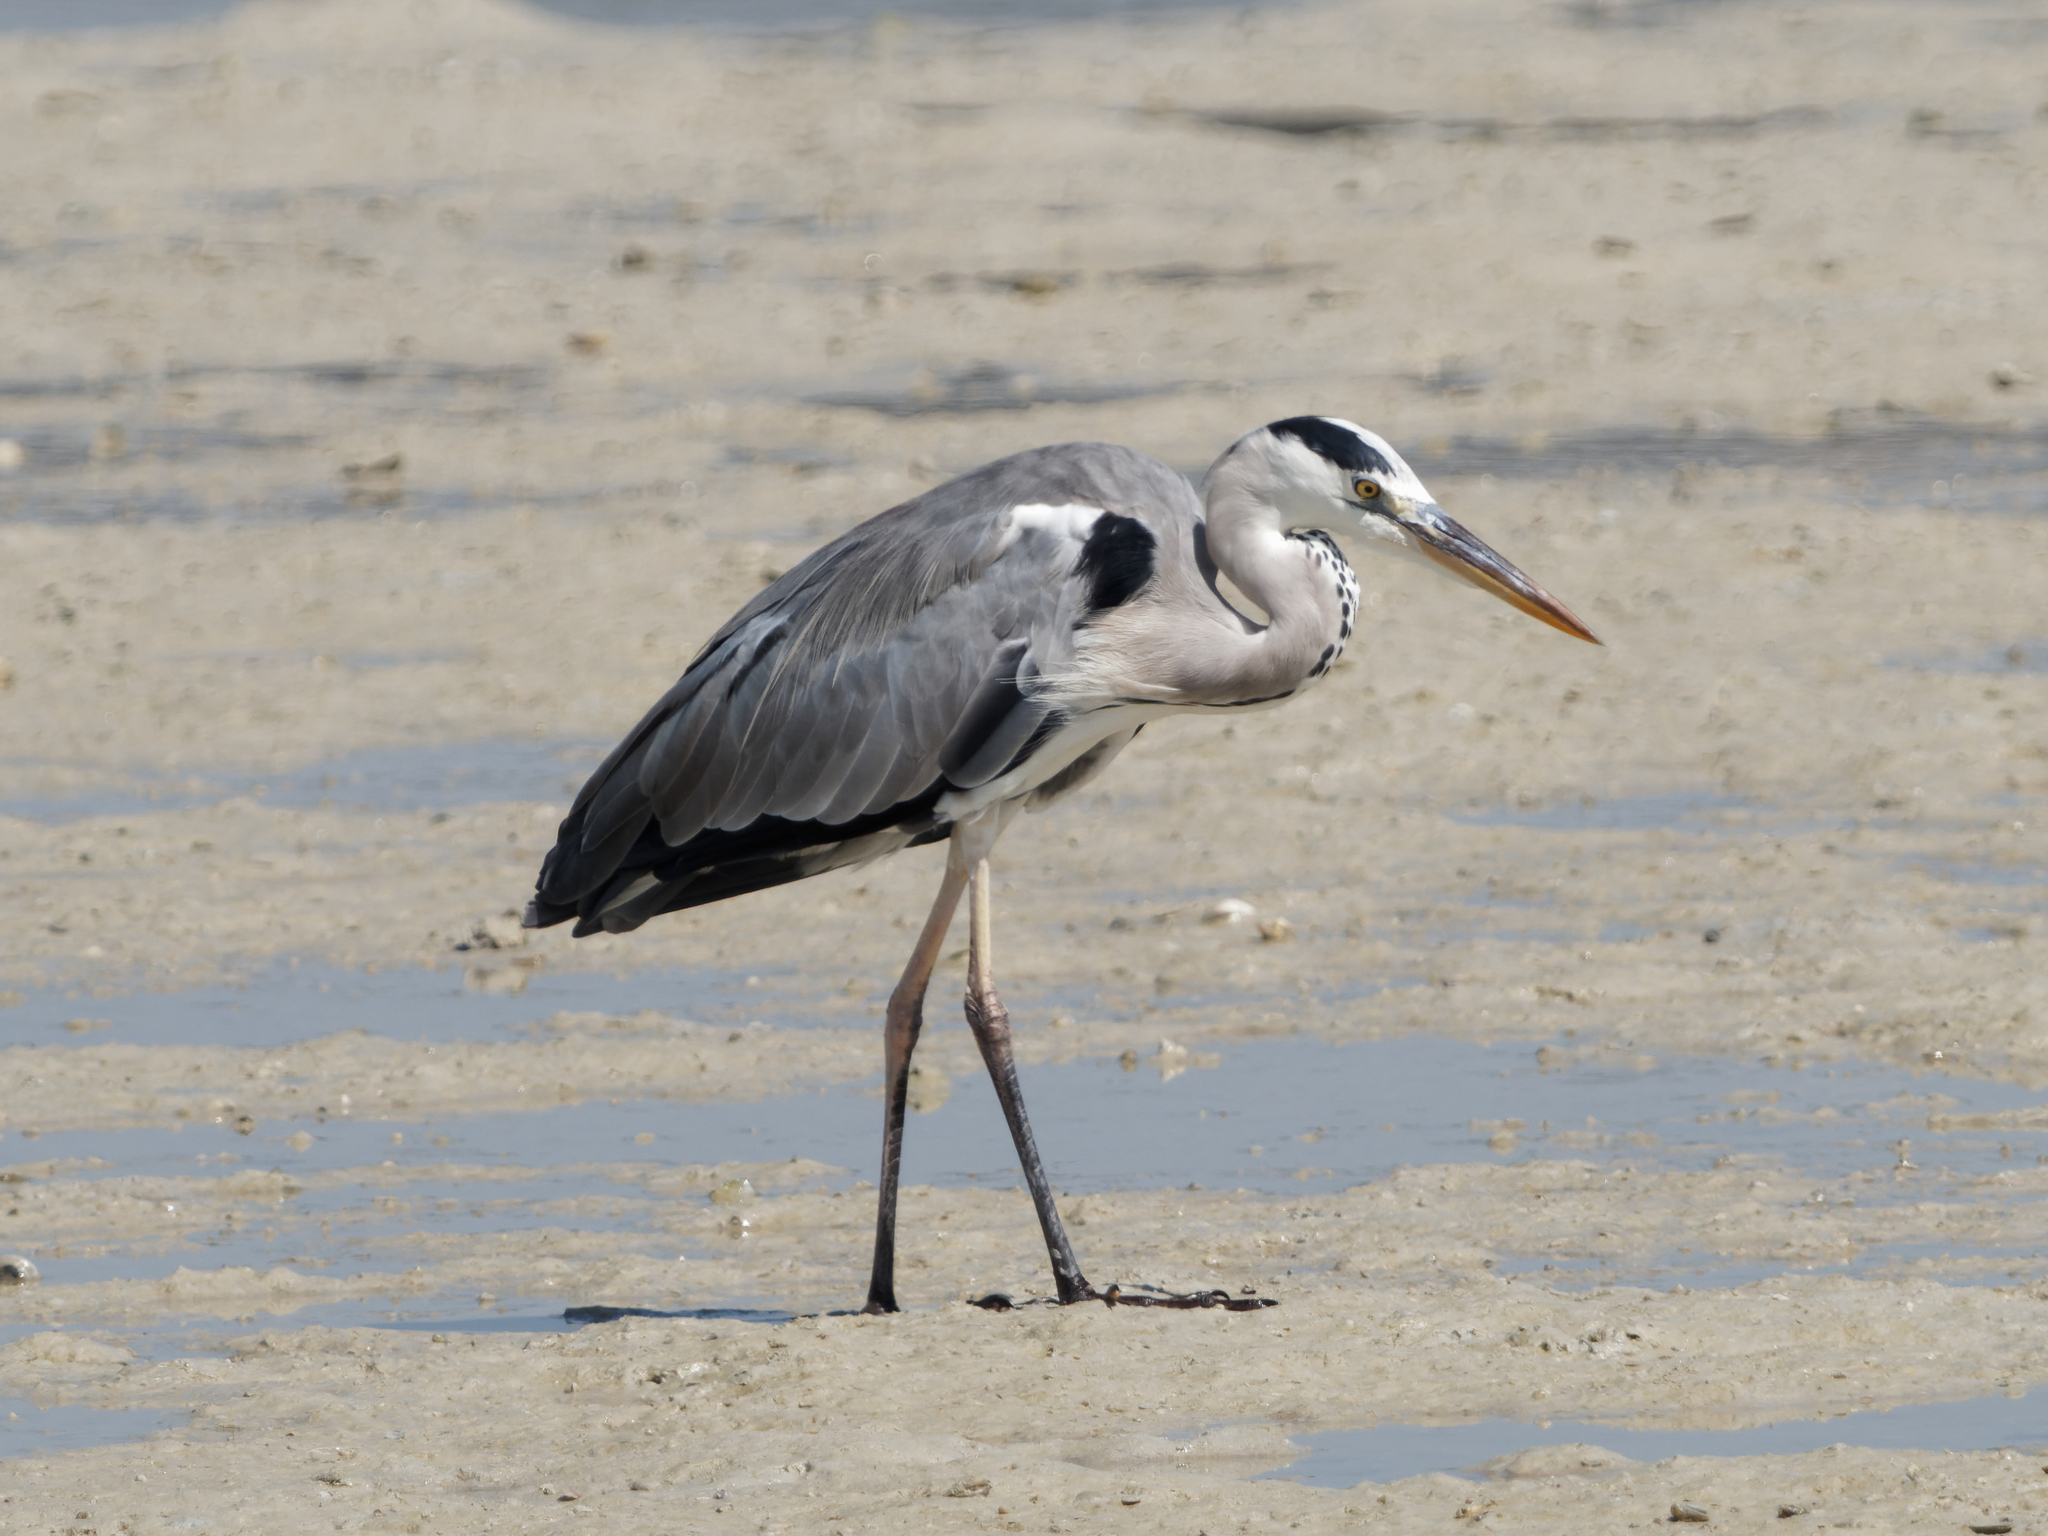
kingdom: Animalia
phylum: Chordata
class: Aves
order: Pelecaniformes
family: Ardeidae
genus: Ardea
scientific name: Ardea cinerea
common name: Grey heron
